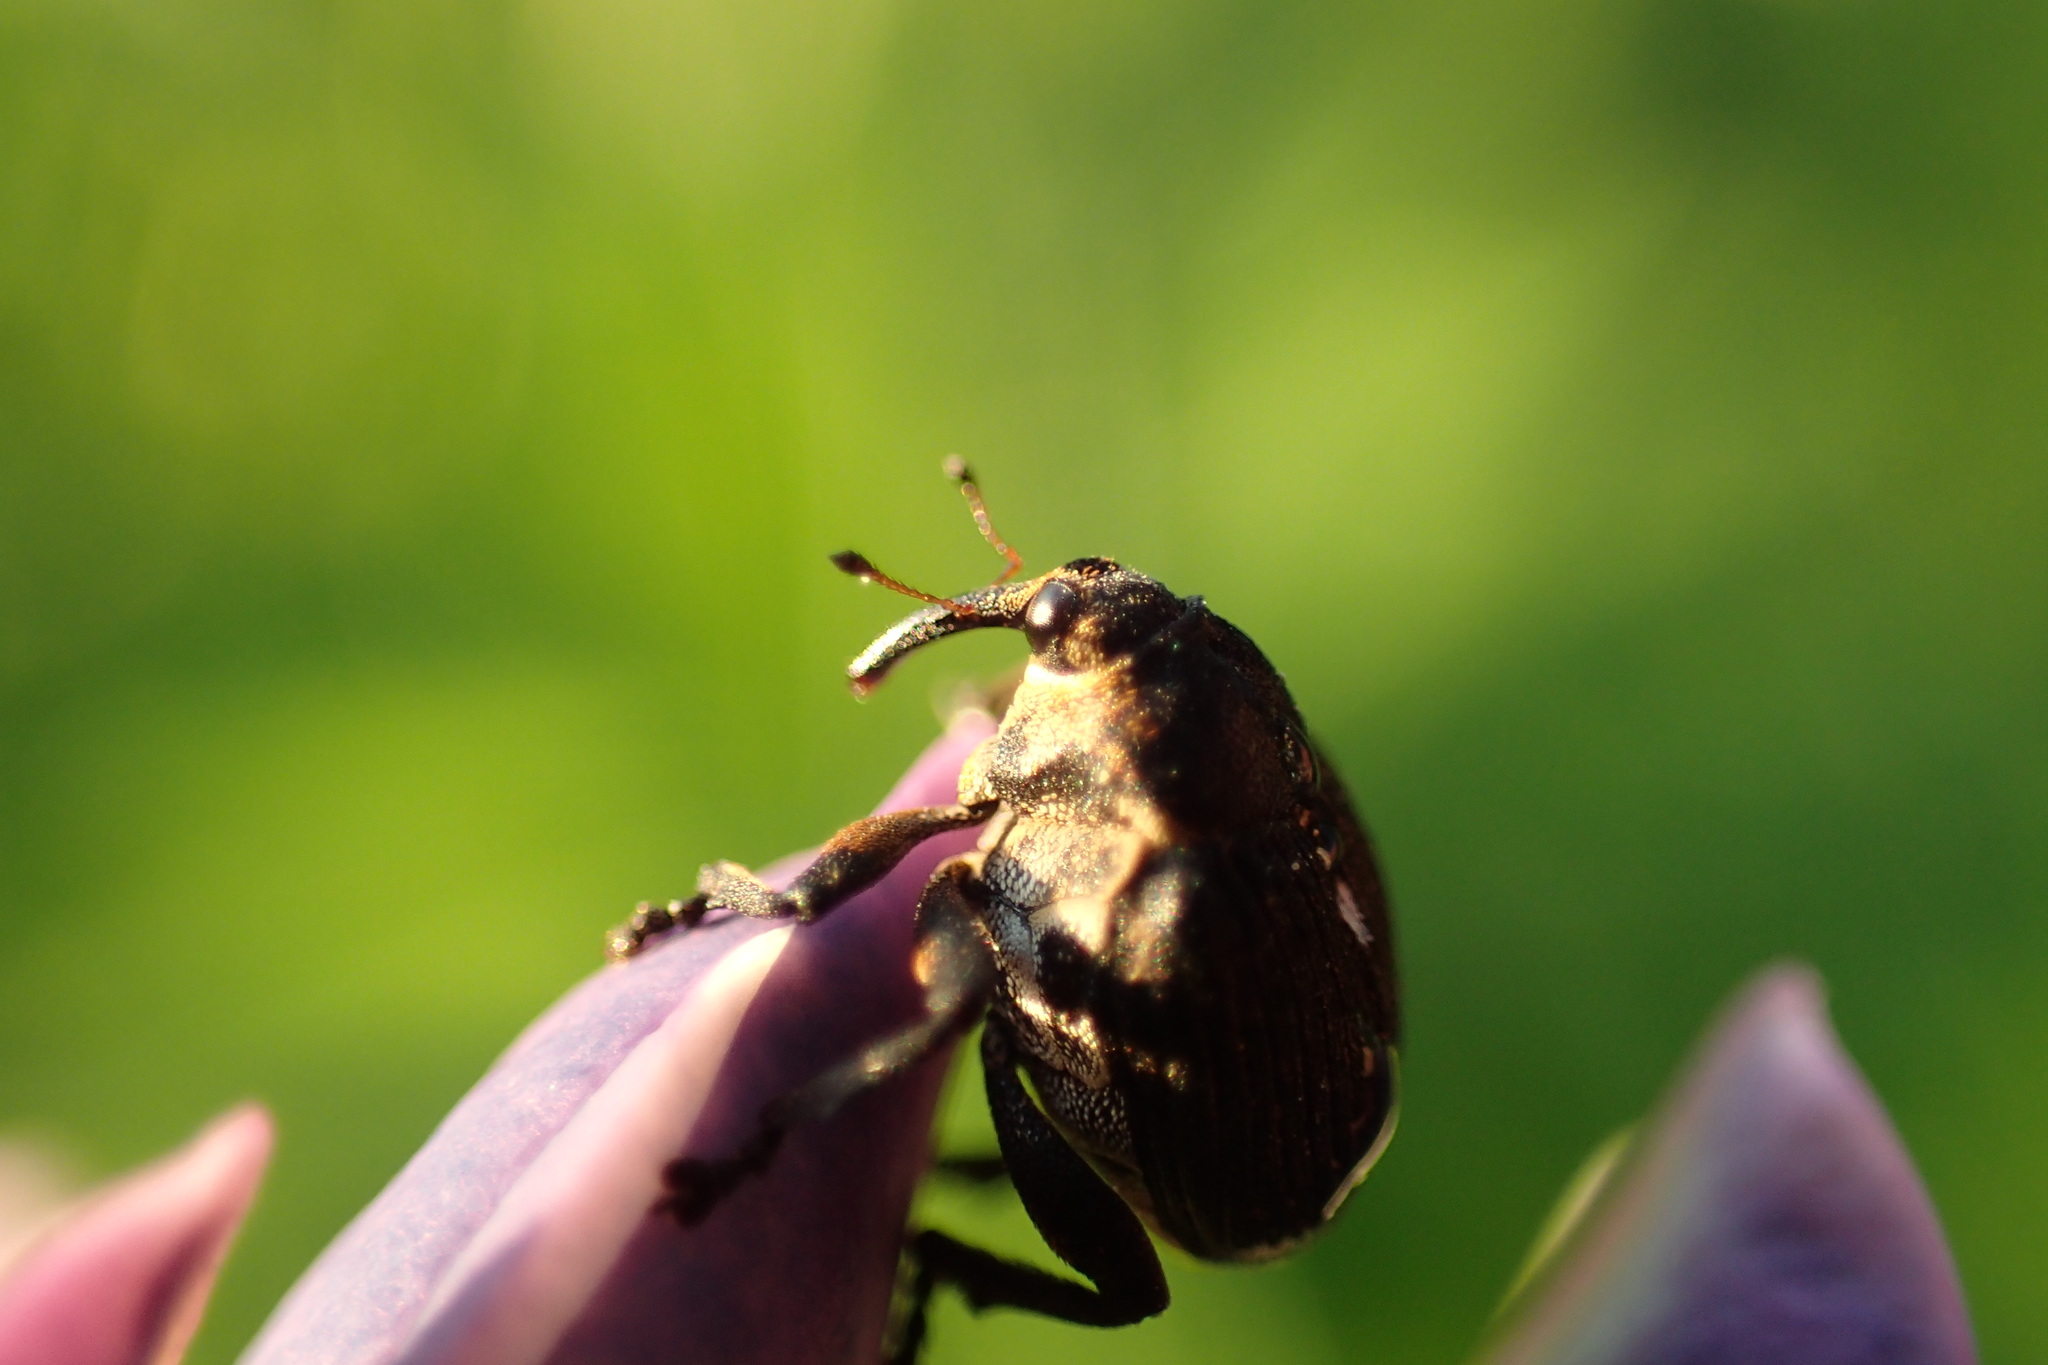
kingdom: Animalia
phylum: Arthropoda
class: Insecta
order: Coleoptera
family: Curculionidae
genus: Mononychus
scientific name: Mononychus punctumalbum
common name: Iris weevil
